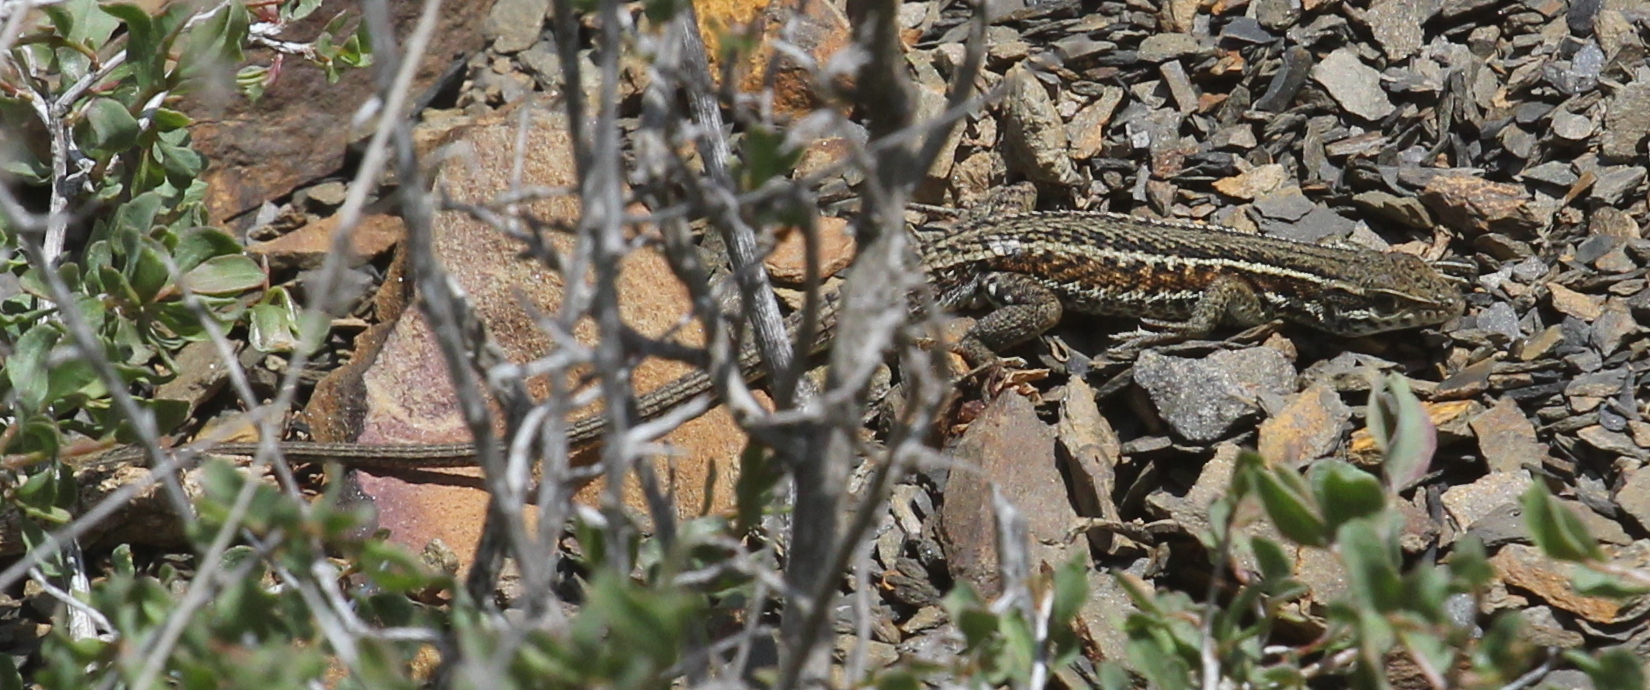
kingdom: Animalia
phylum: Chordata
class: Squamata
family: Lacertidae
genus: Ophisops
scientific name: Ophisops elegans
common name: Snake-eyed lizard
